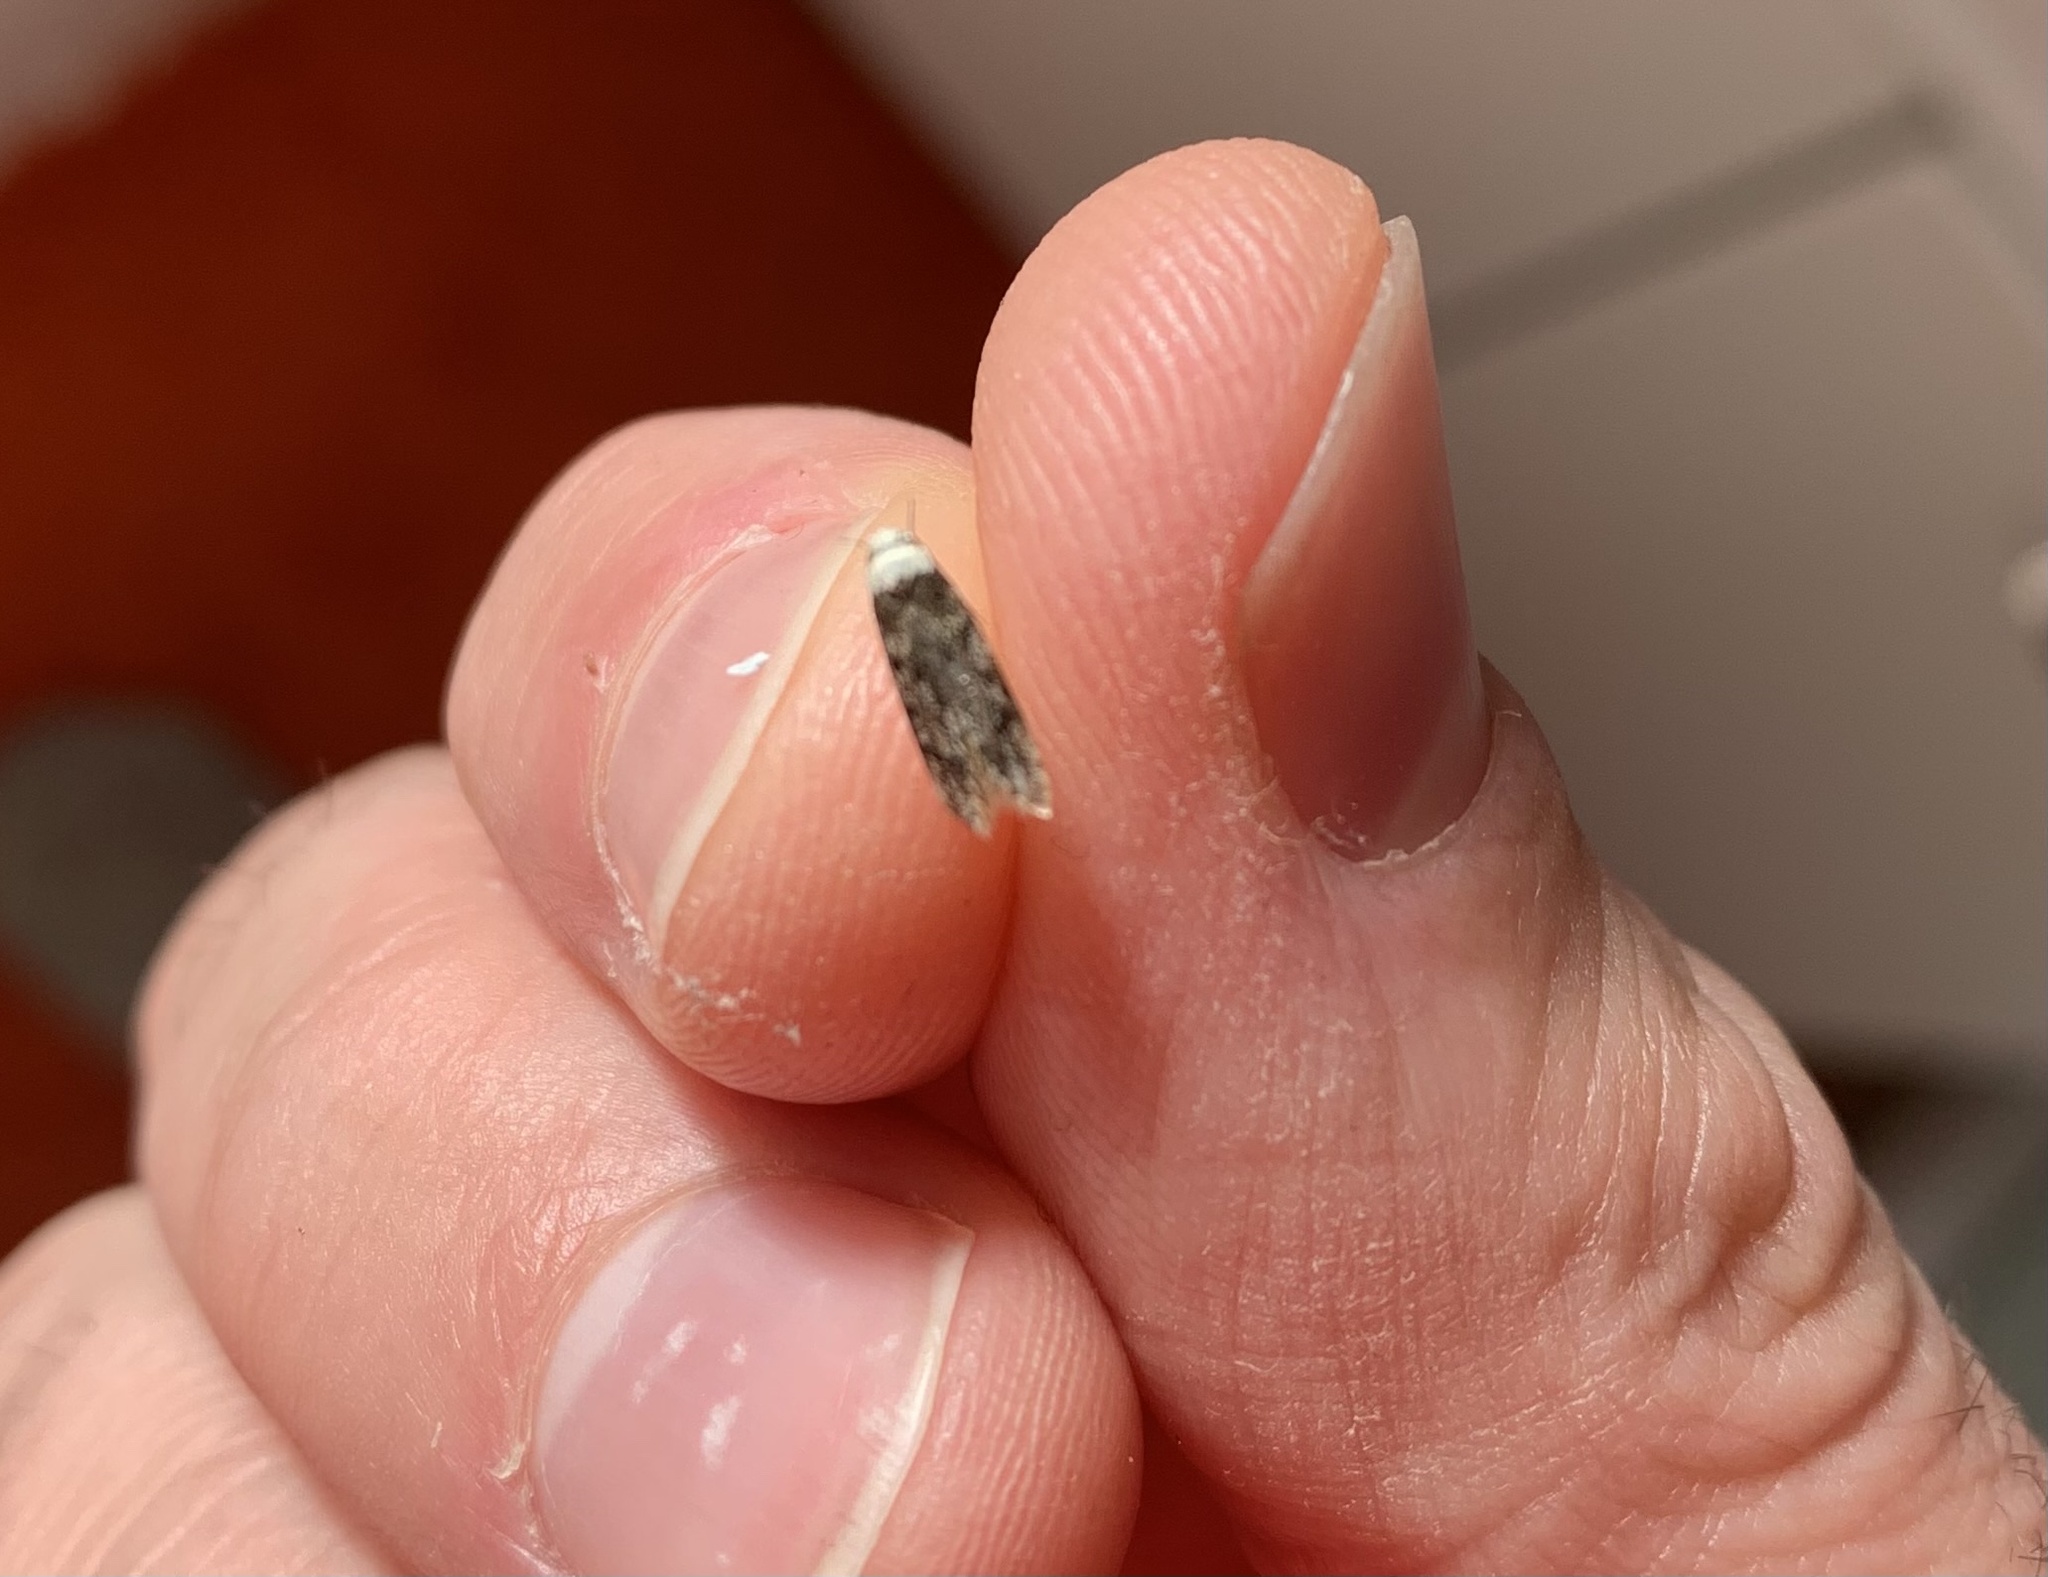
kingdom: Animalia
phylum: Arthropoda
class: Insecta
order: Lepidoptera
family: Oecophoridae
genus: Endrosis
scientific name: Endrosis sarcitrella
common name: White-shouldered house moth
